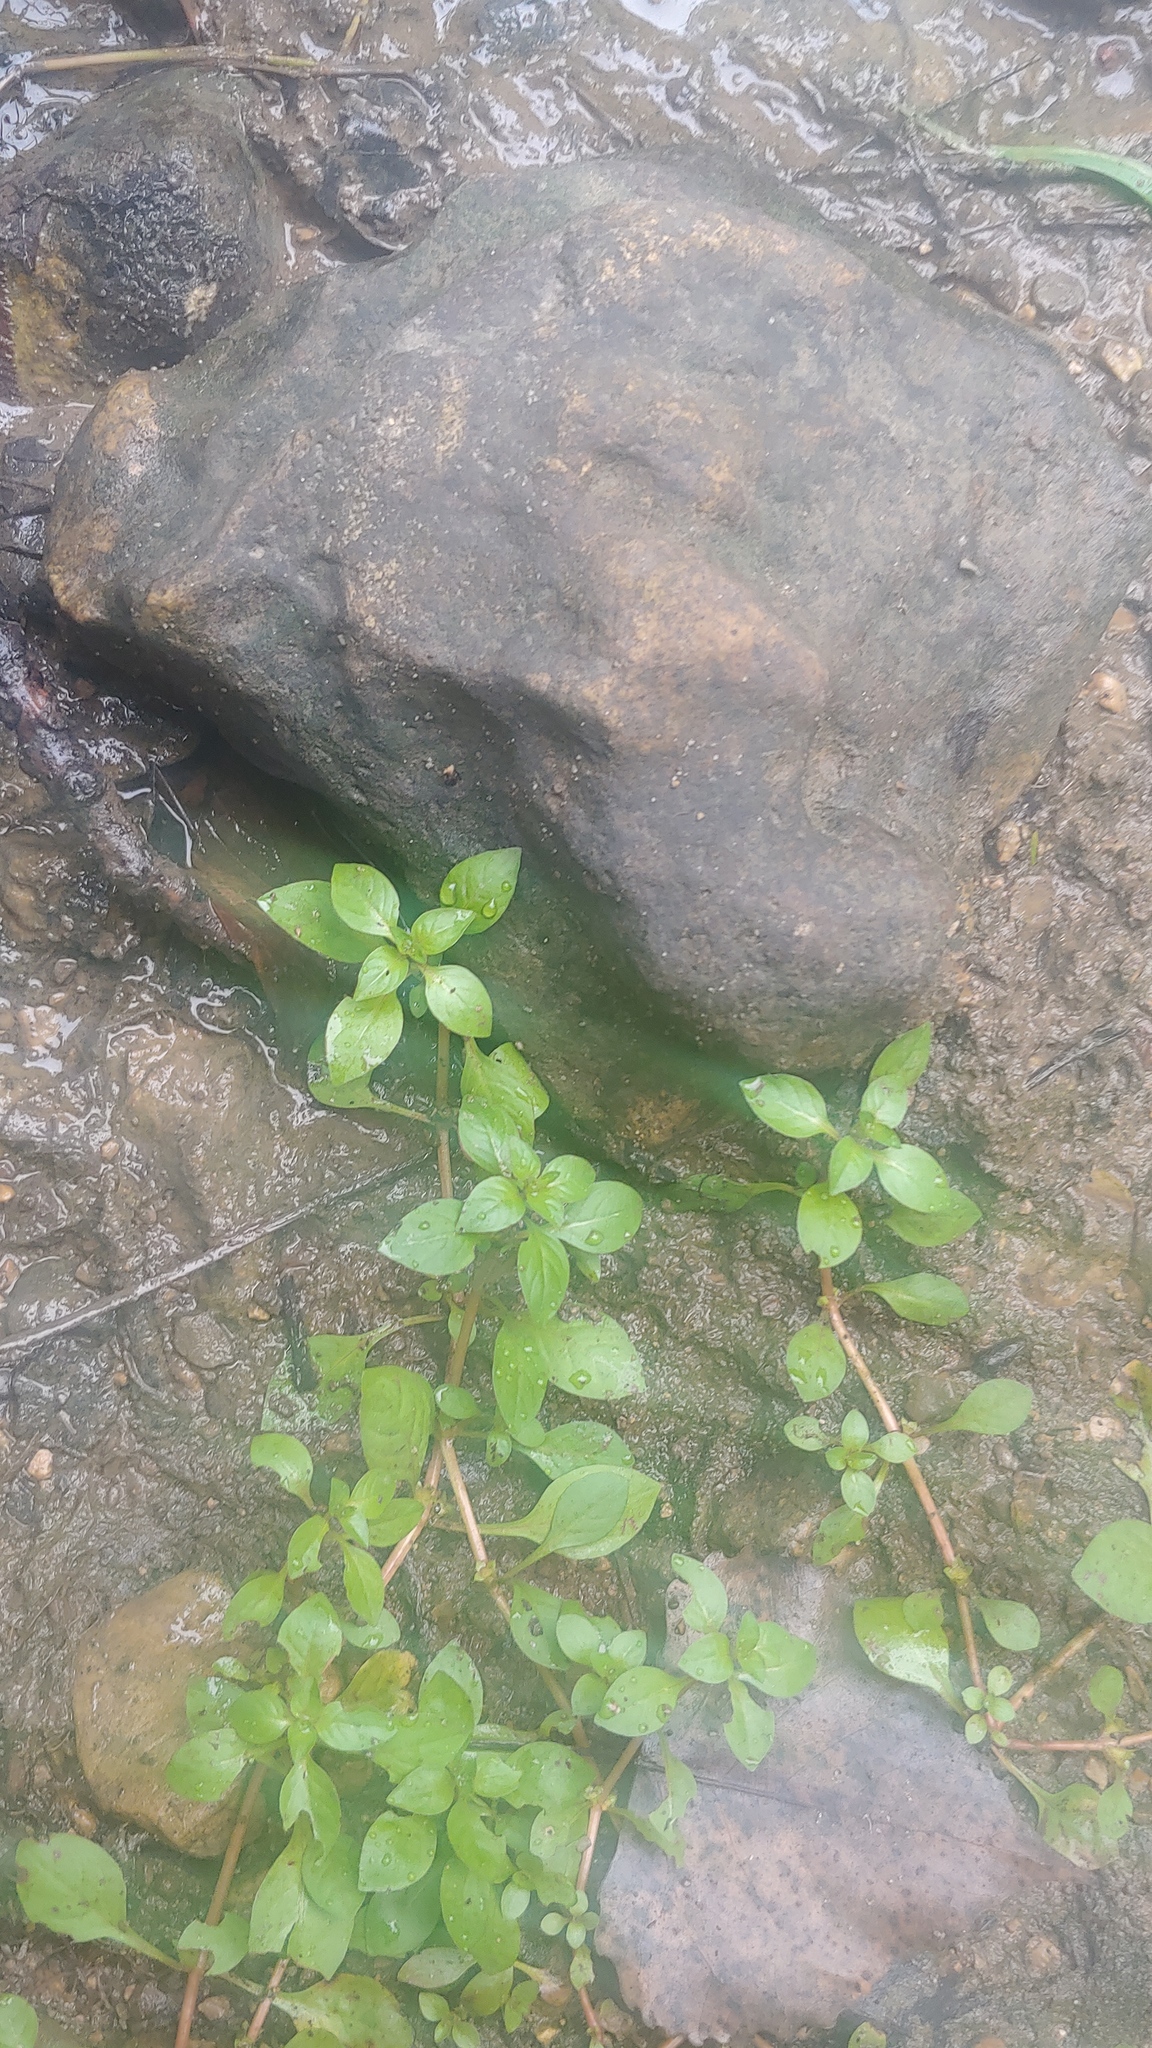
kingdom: Plantae
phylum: Tracheophyta
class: Magnoliopsida
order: Myrtales
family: Onagraceae
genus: Ludwigia
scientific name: Ludwigia palustris
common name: Hampshire-purslane
